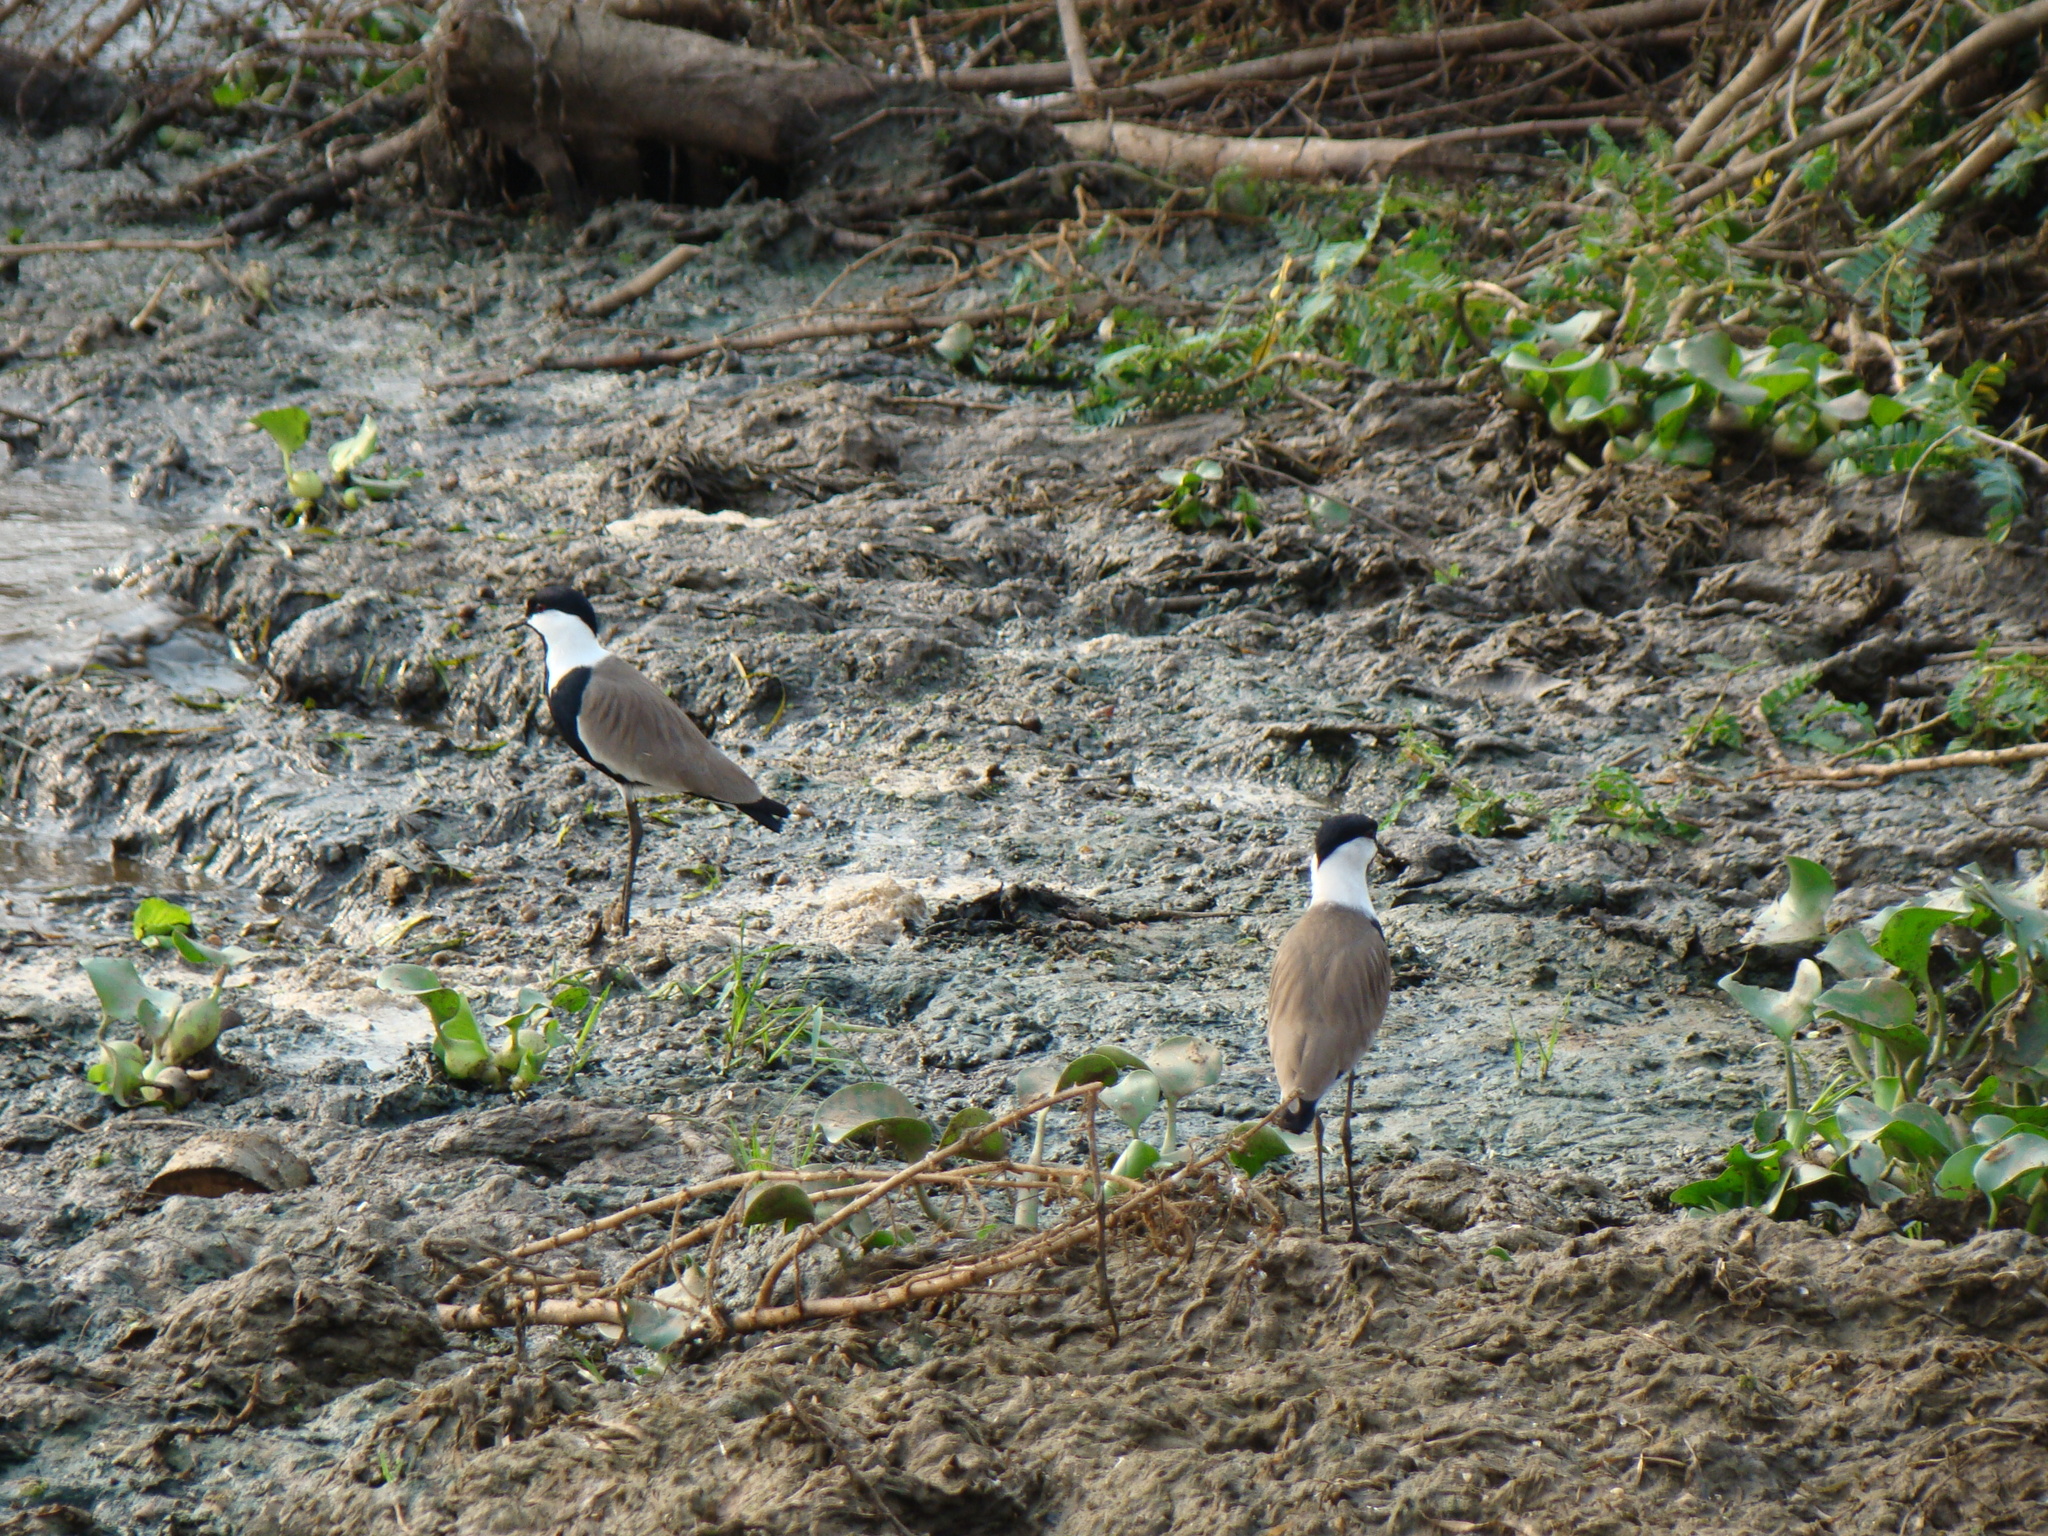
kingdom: Animalia
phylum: Chordata
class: Aves
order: Charadriiformes
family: Charadriidae
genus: Vanellus
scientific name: Vanellus spinosus
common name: Spur-winged lapwing
